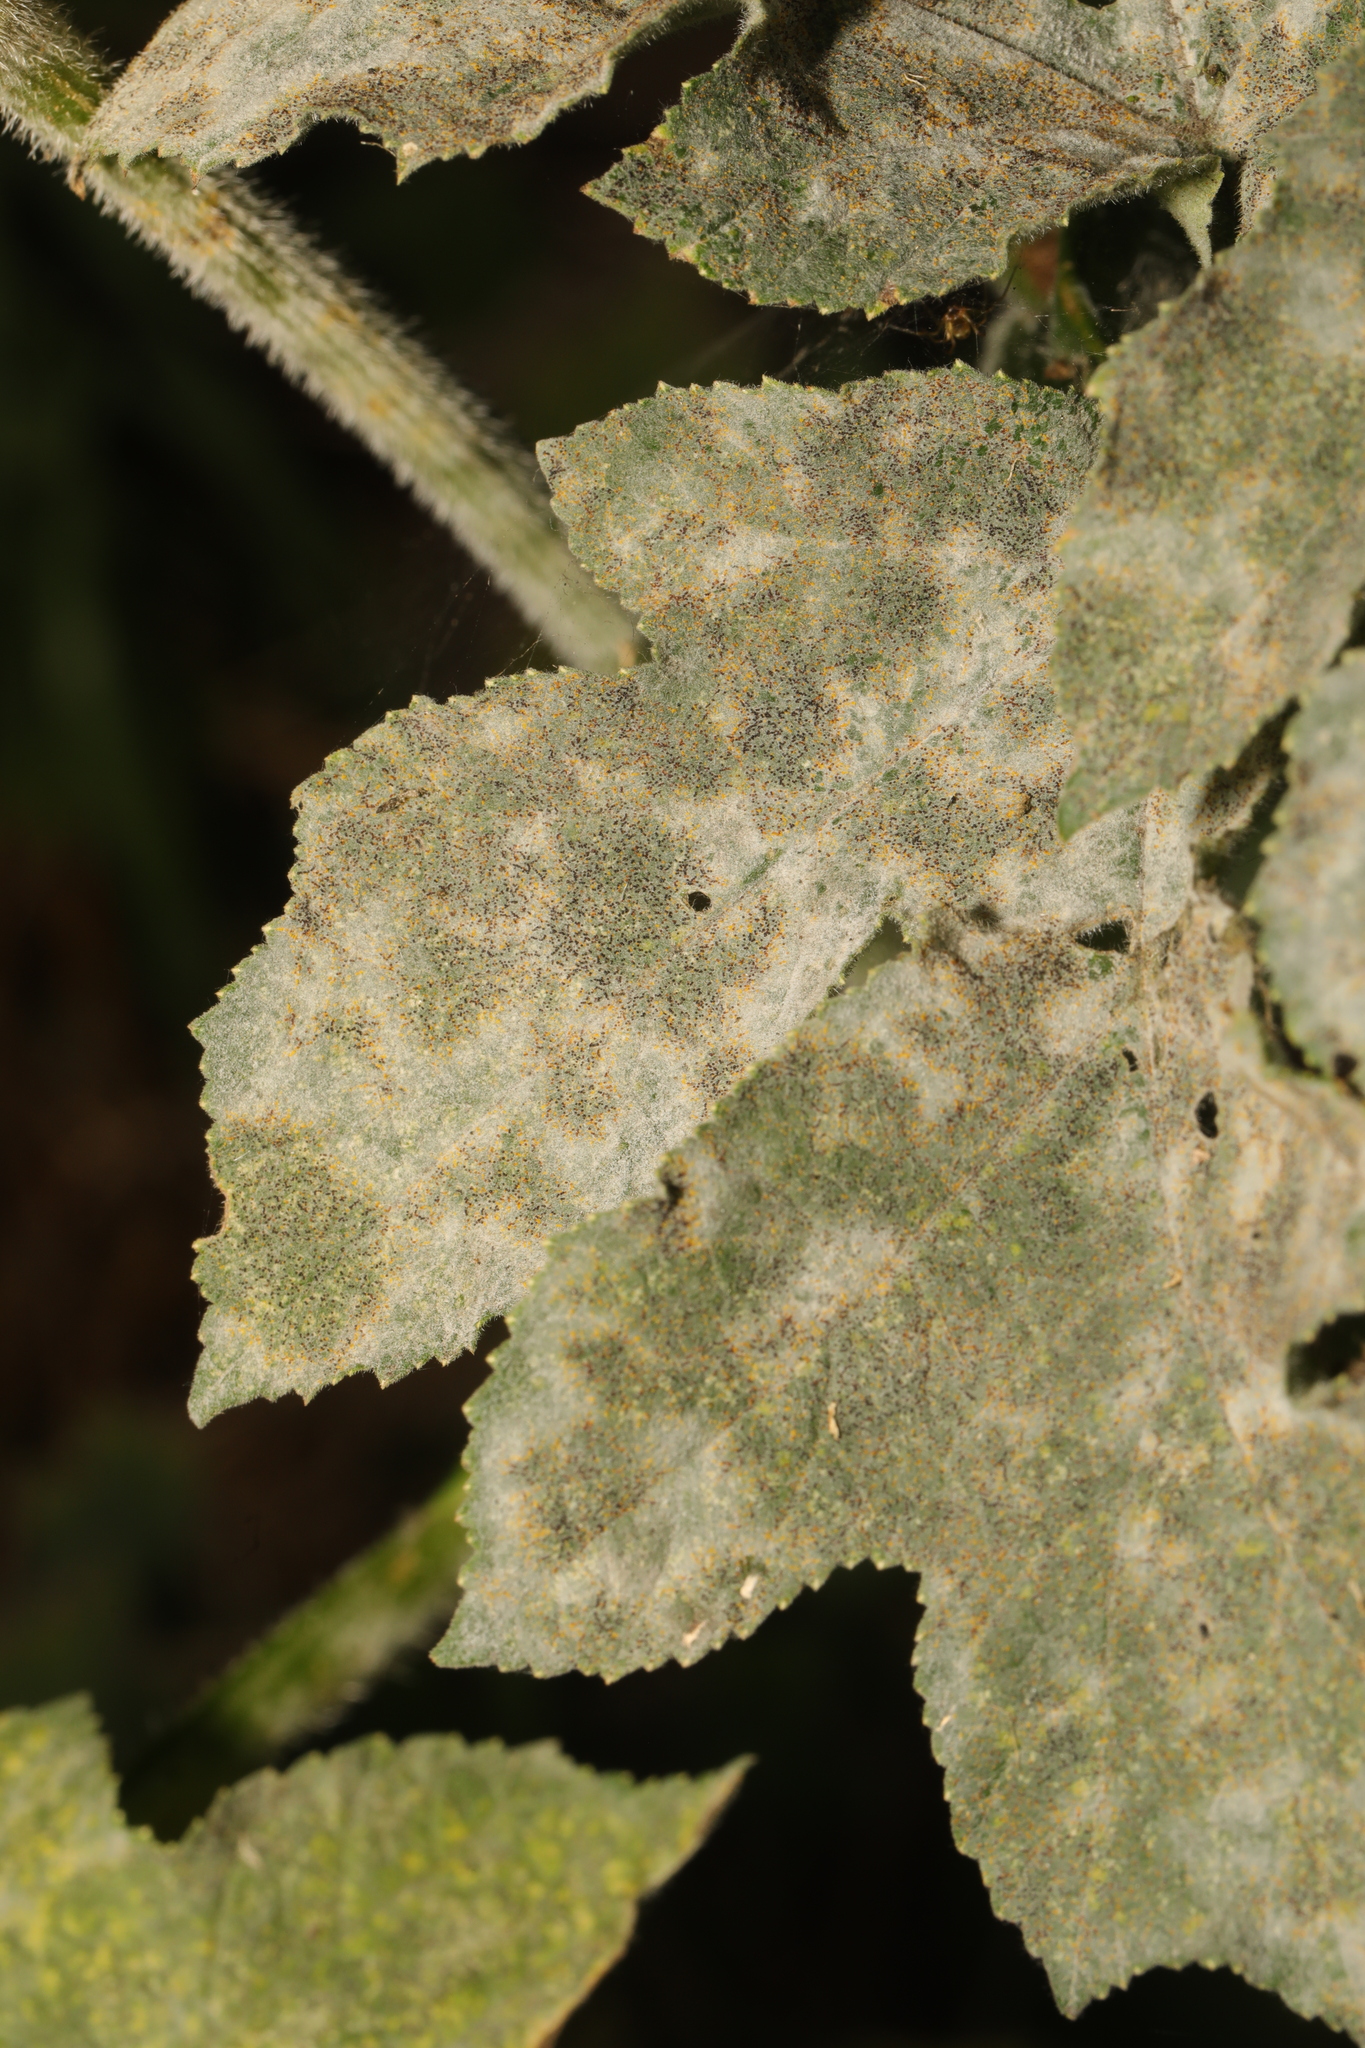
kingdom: Fungi
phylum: Ascomycota
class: Leotiomycetes
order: Helotiales
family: Erysiphaceae
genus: Erysiphe
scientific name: Erysiphe heraclei
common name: Umbellifer mildew
